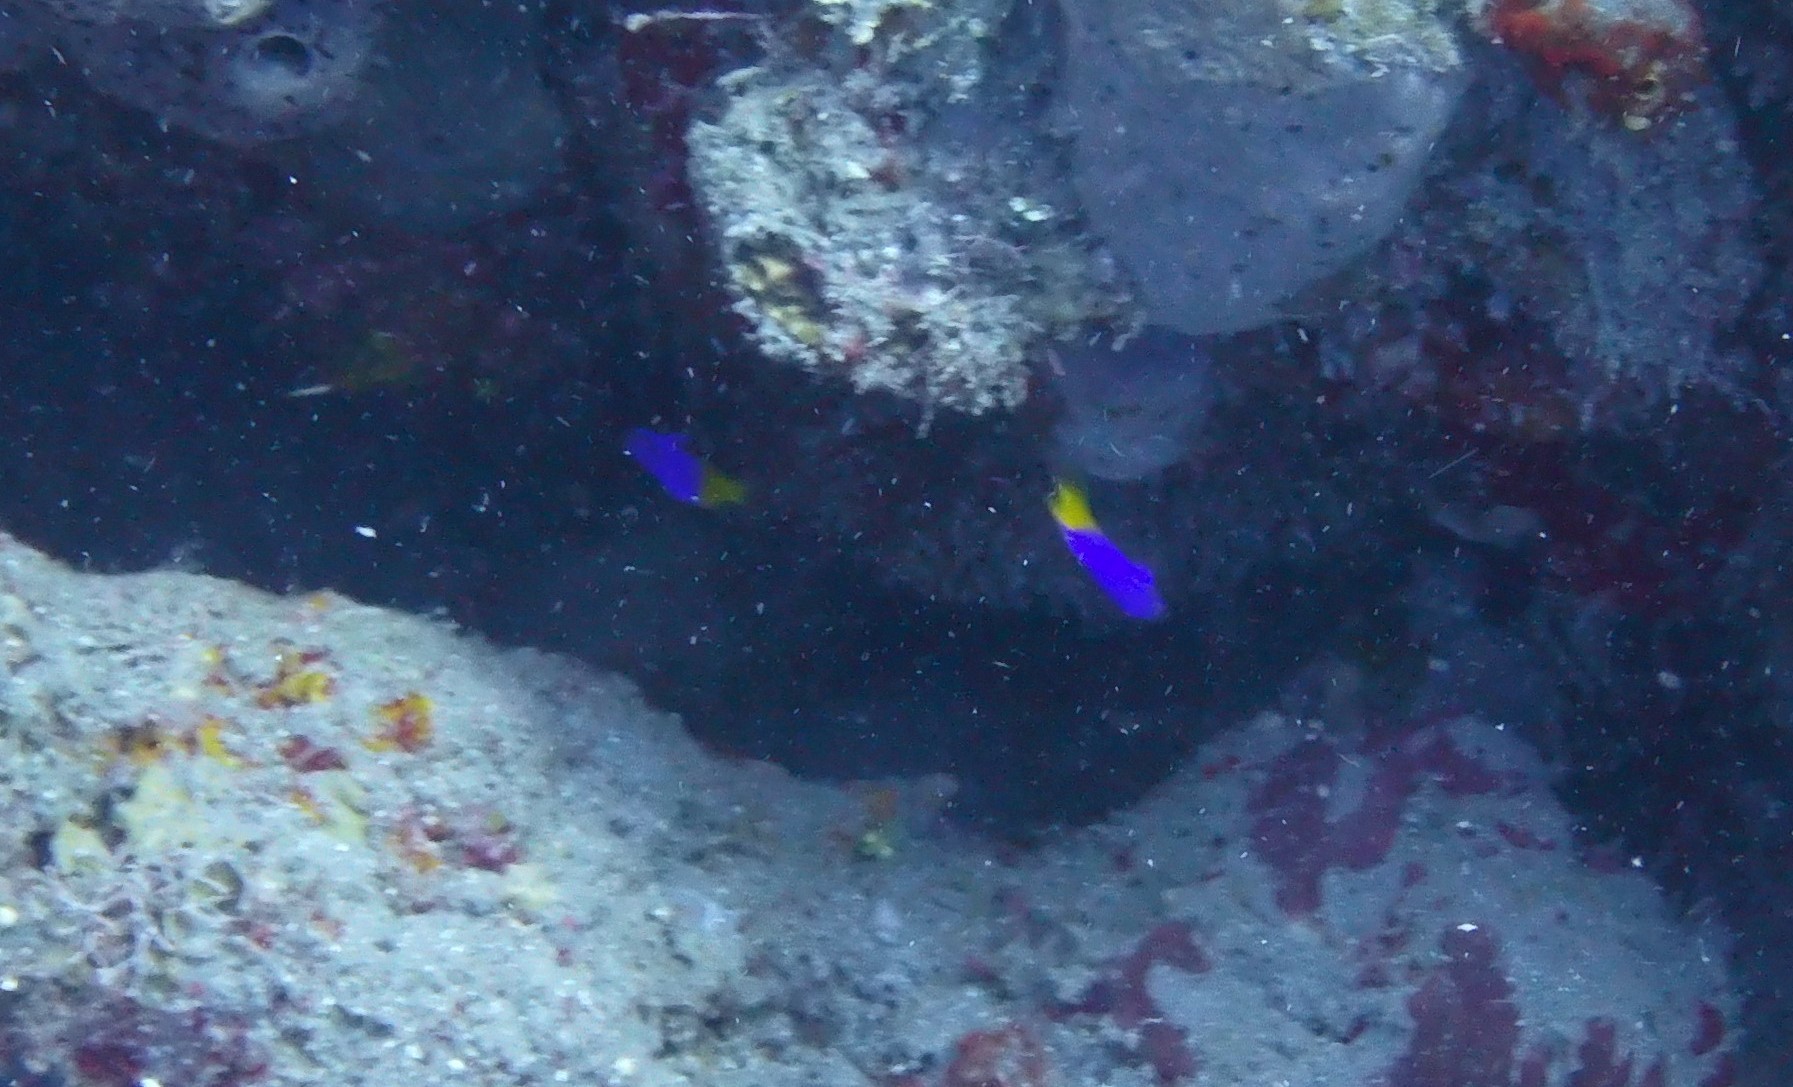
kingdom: Animalia
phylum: Chordata
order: Perciformes
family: Grammatidae
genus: Gramma
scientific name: Gramma loreto
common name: Fairy basslet
